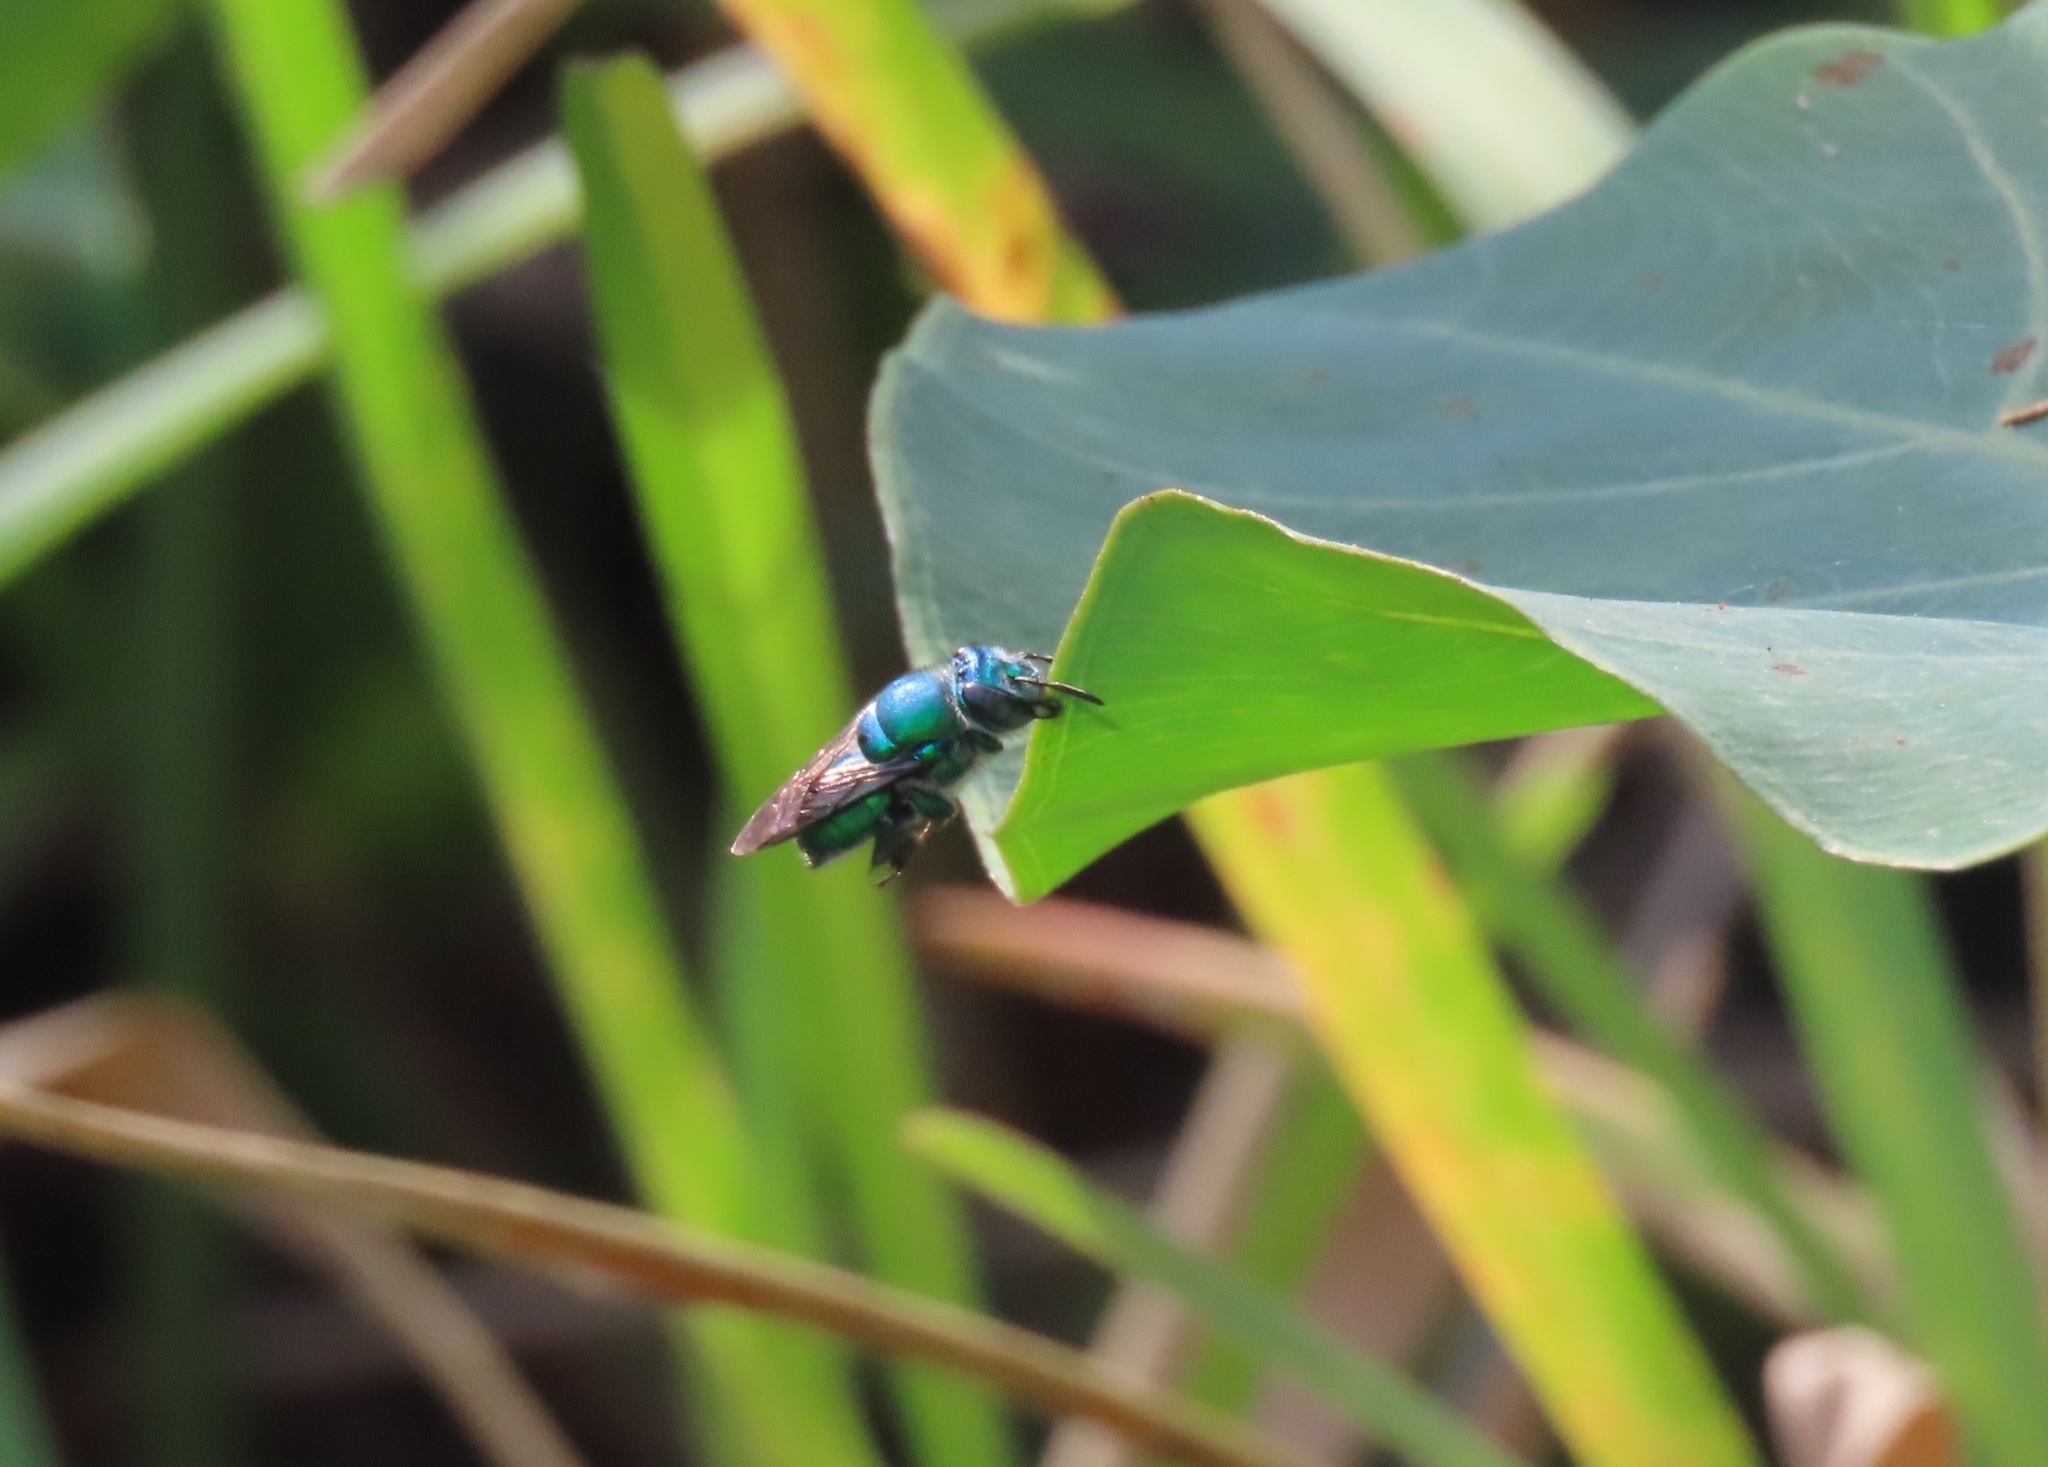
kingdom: Animalia
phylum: Arthropoda
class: Insecta
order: Hymenoptera
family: Apidae
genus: Euglossa
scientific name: Euglossa dilemma
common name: Green orchid bee
